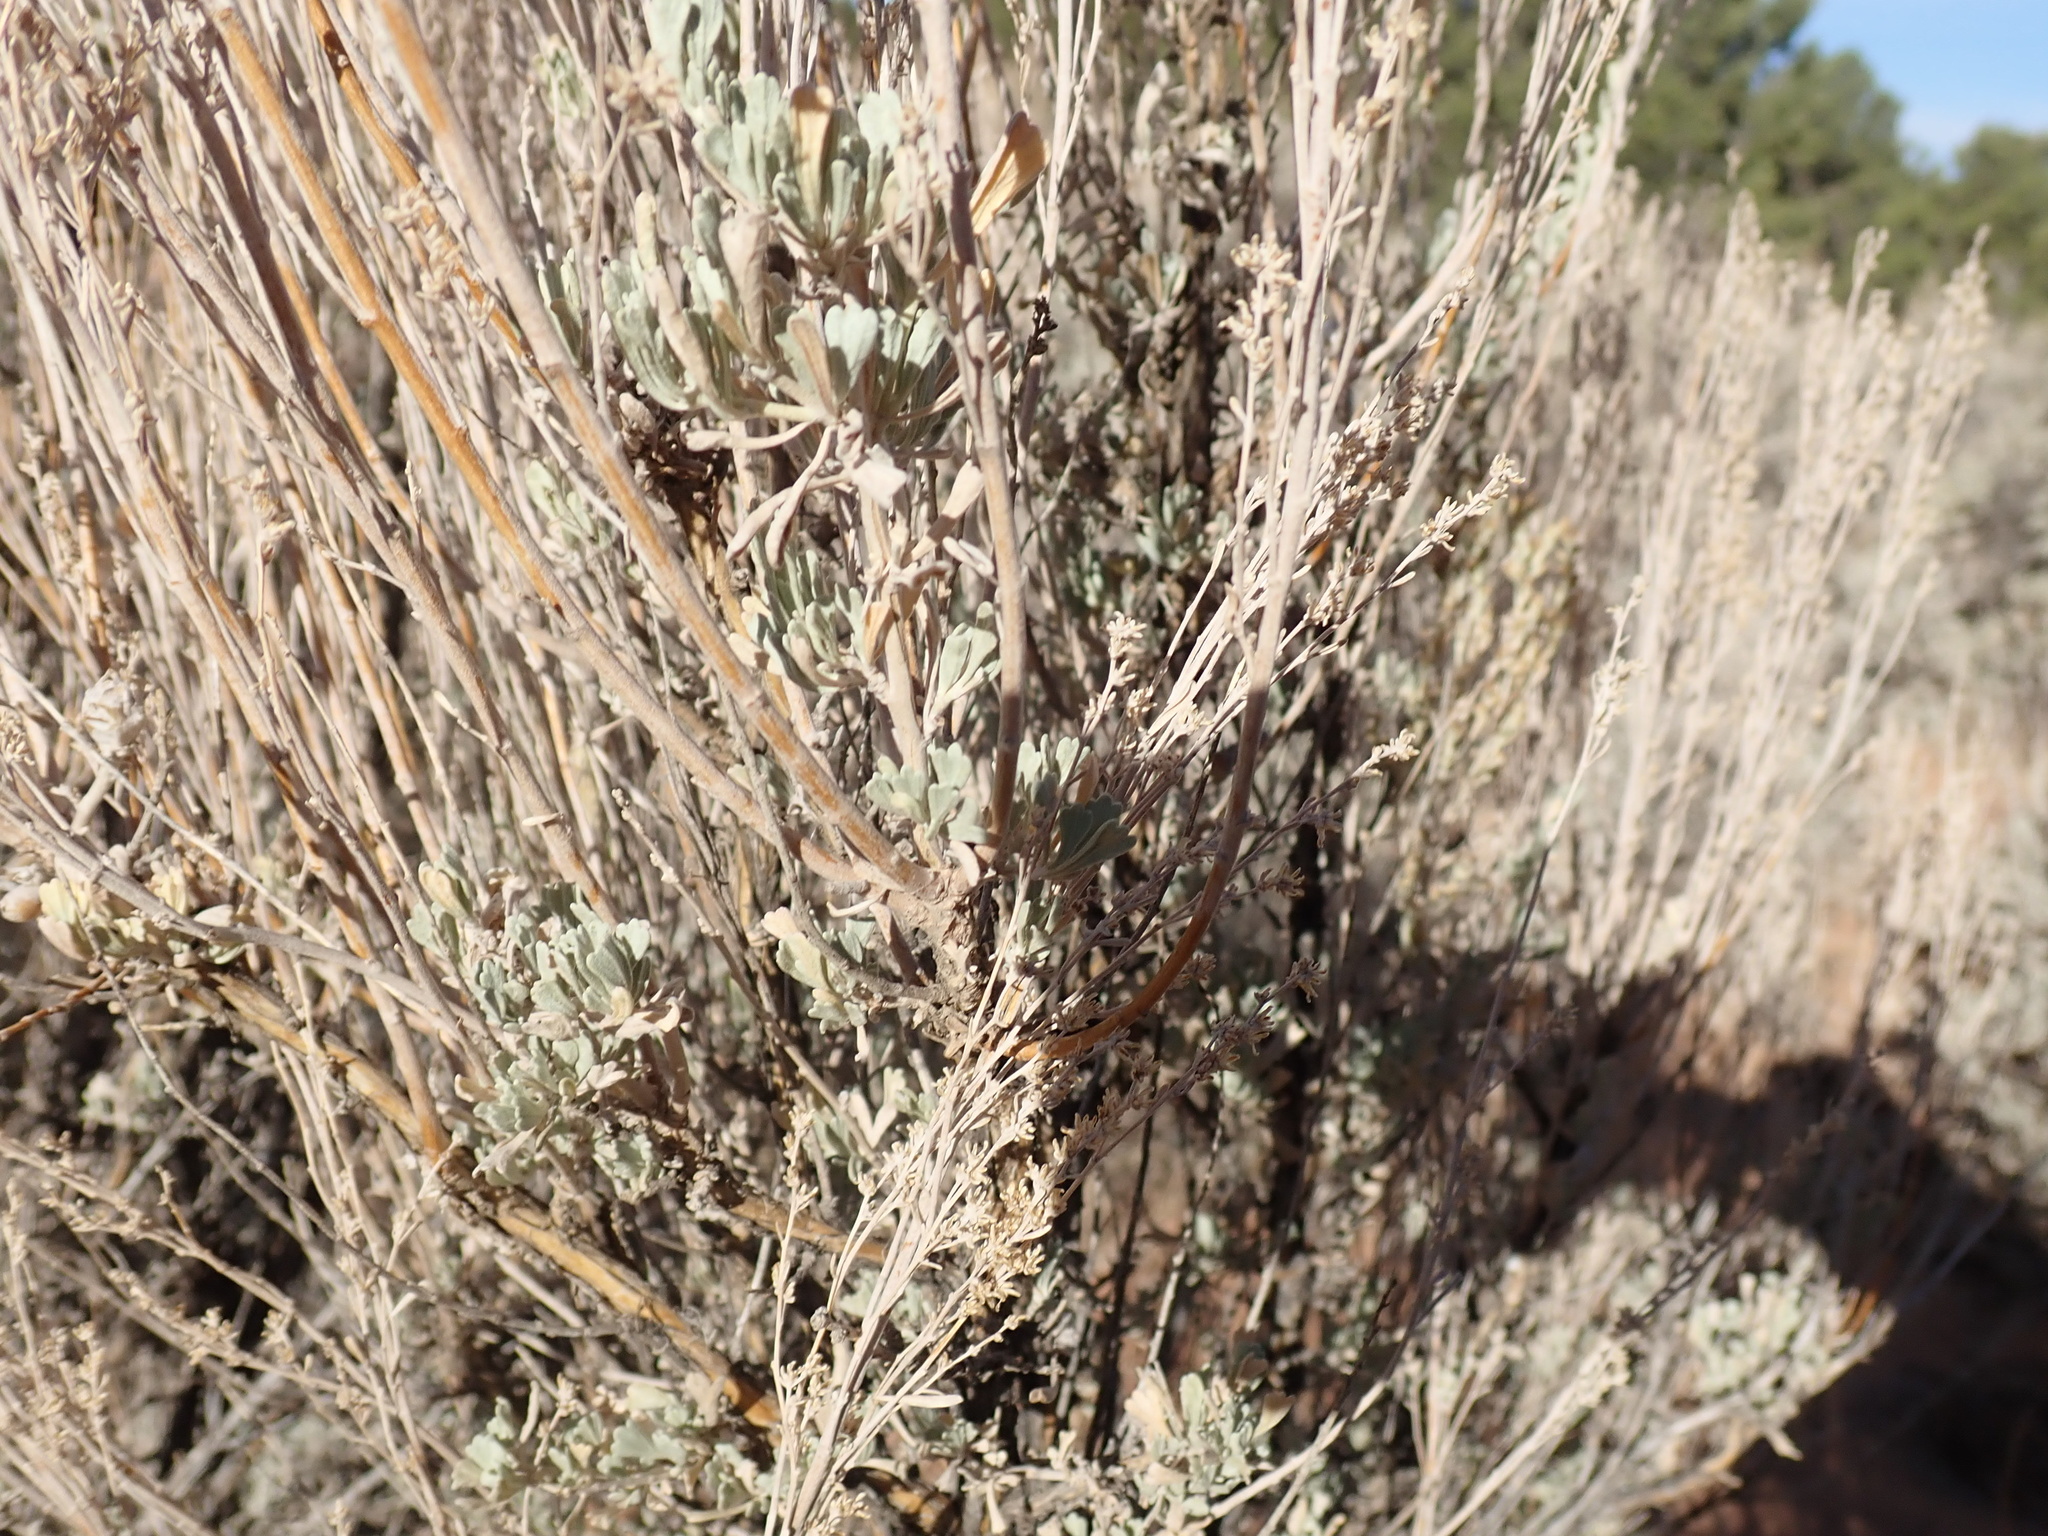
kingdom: Plantae
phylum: Tracheophyta
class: Magnoliopsida
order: Asterales
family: Asteraceae
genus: Artemisia
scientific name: Artemisia tridentata
